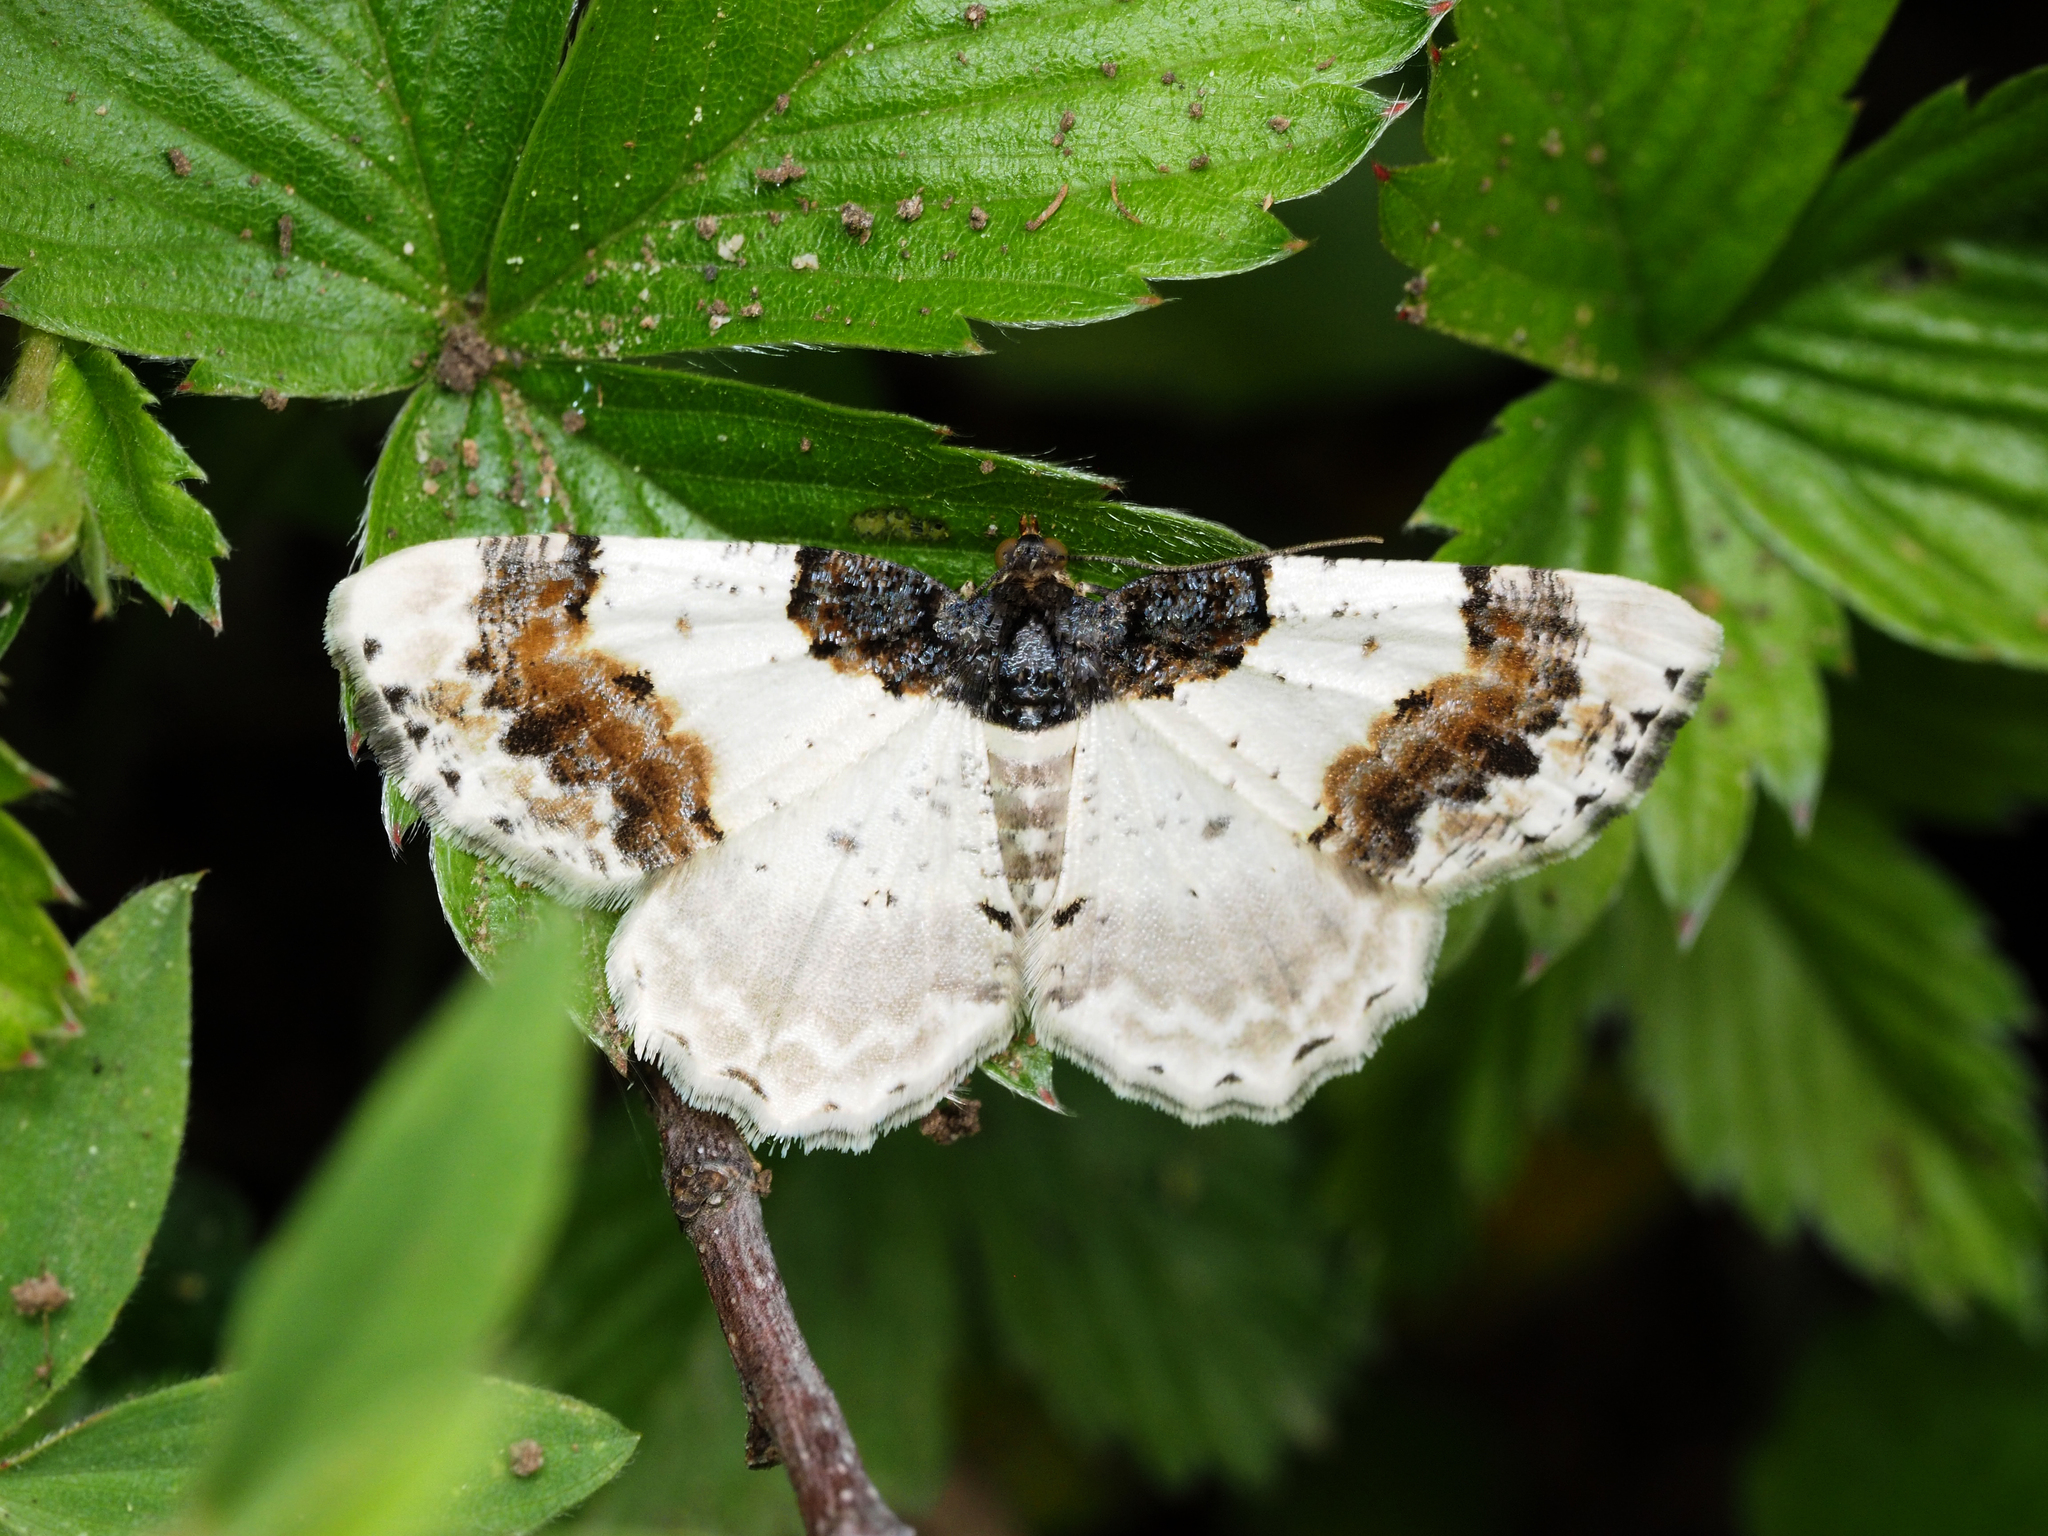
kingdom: Animalia
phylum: Arthropoda
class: Insecta
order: Lepidoptera
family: Geometridae
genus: Ligdia
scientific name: Ligdia adustata
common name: Scorched carpet
